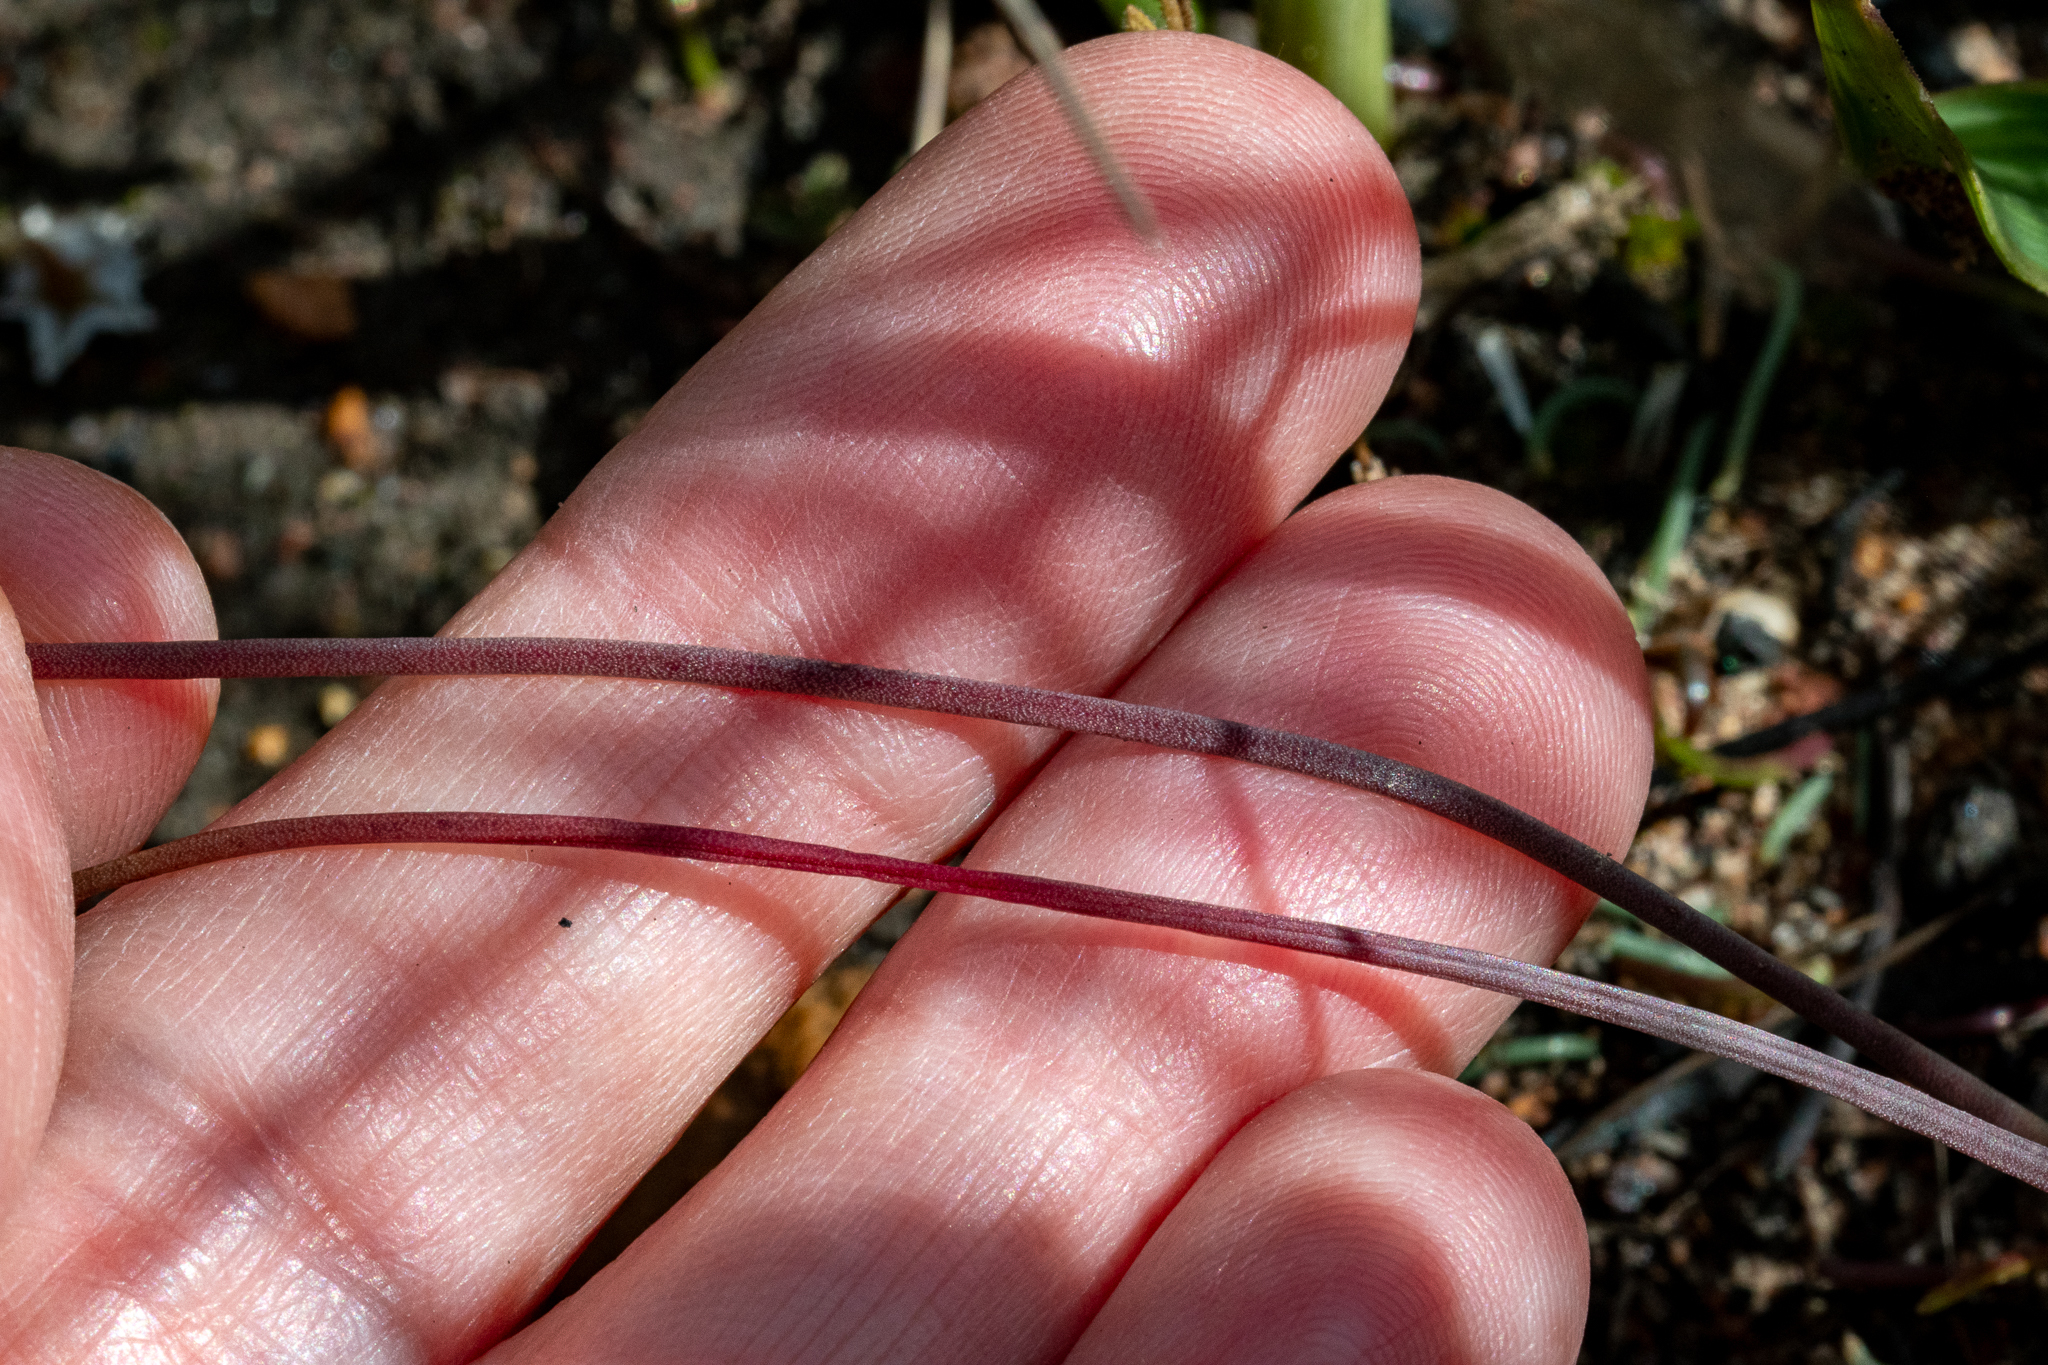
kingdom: Plantae
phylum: Tracheophyta
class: Liliopsida
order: Asparagales
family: Asparagaceae
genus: Lachenalia
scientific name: Lachenalia contaminata
